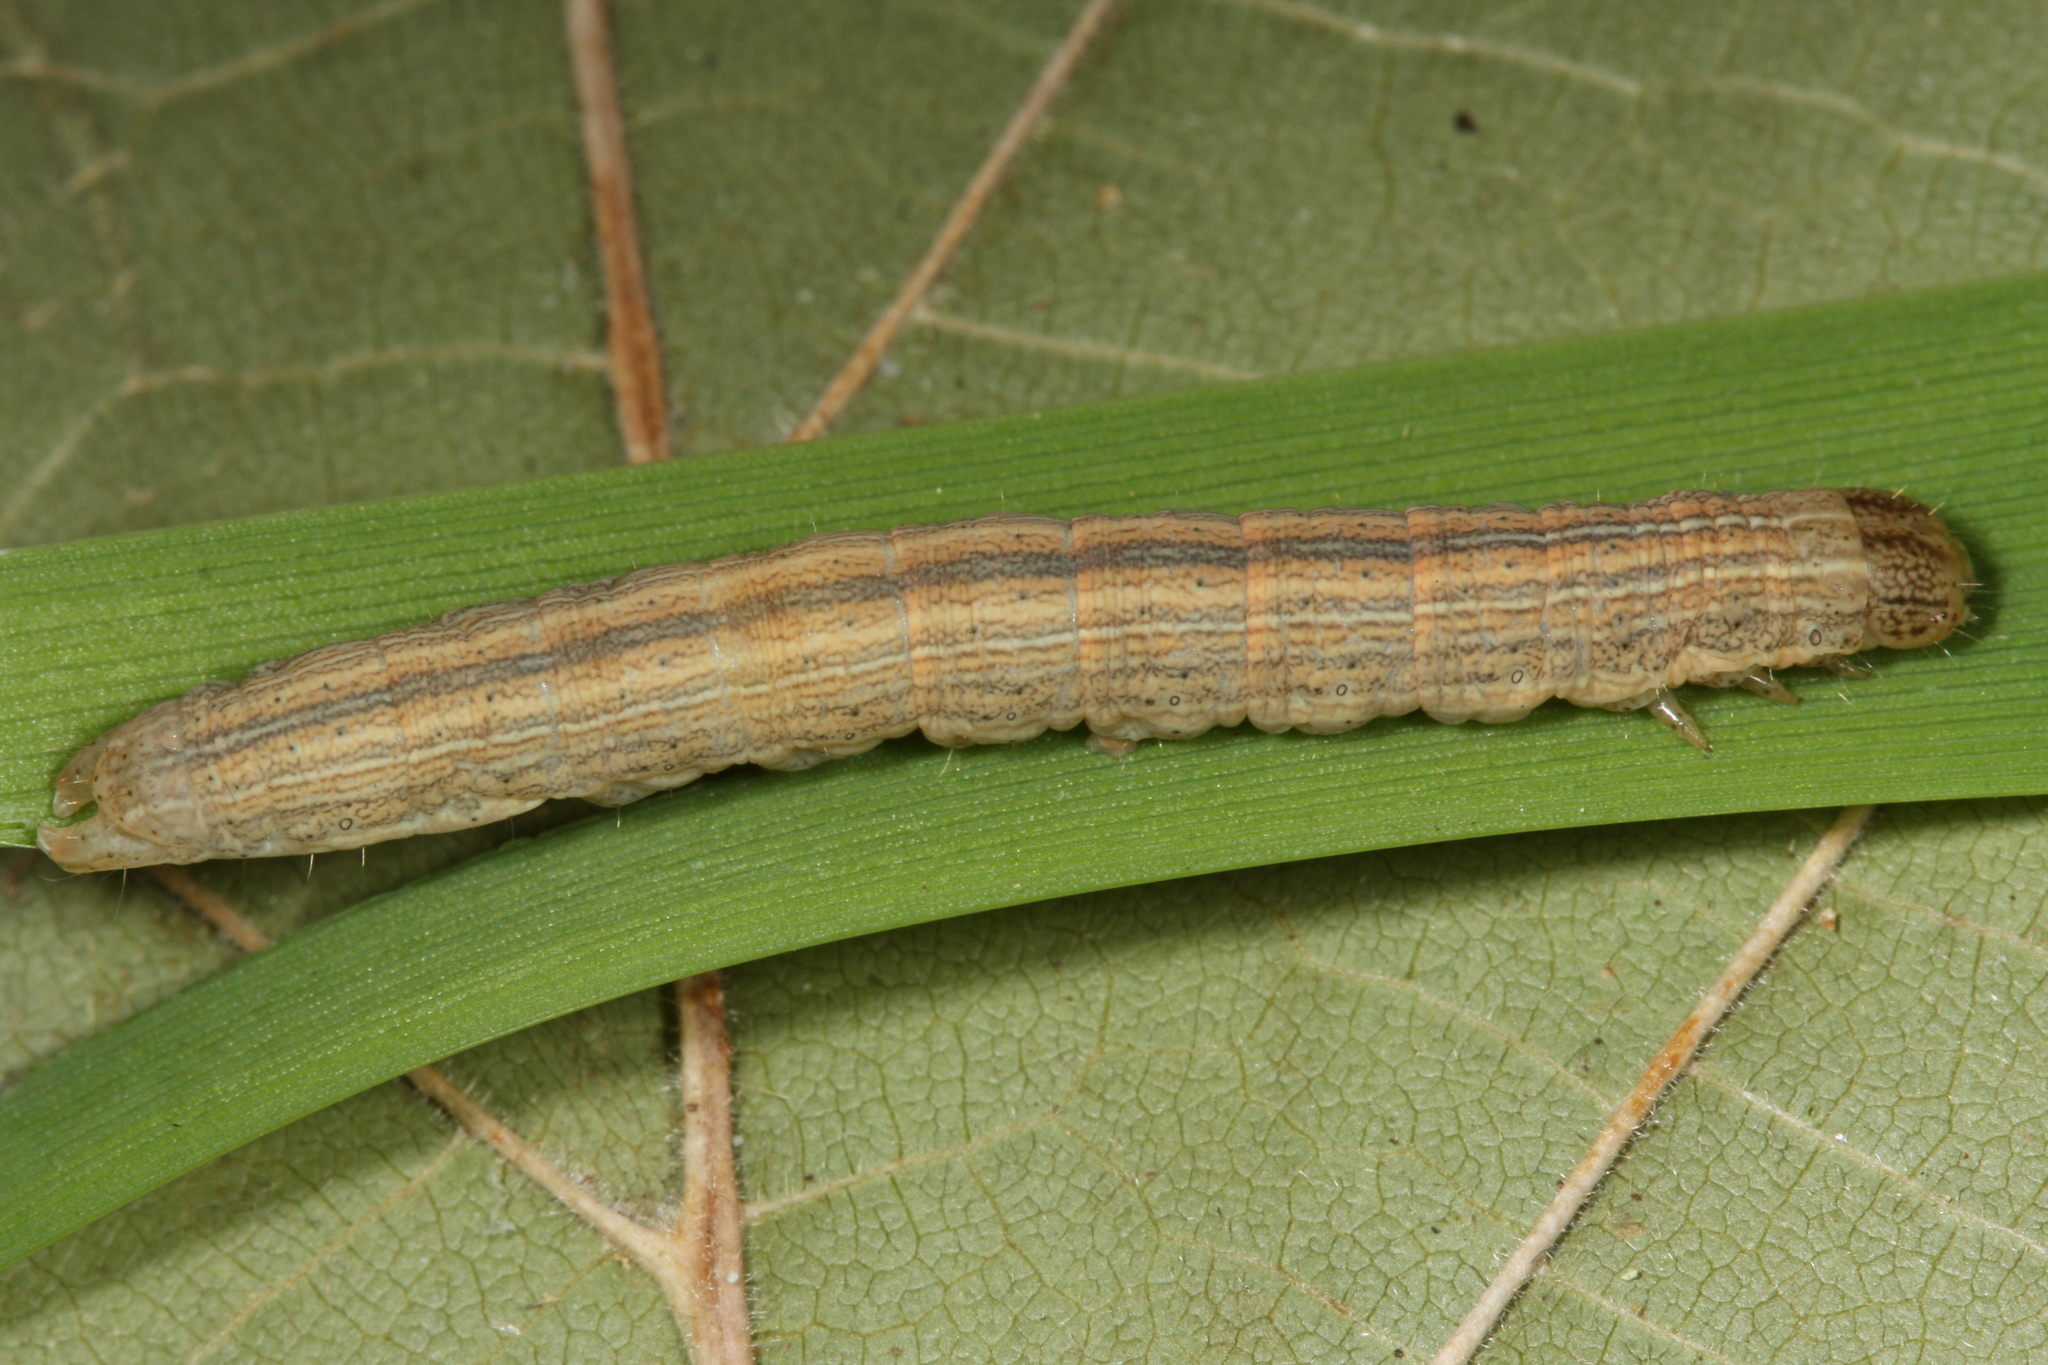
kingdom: Animalia
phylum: Arthropoda
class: Insecta
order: Lepidoptera
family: Noctuidae
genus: Mythimna
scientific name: Mythimna straminea
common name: Southern wainscot
